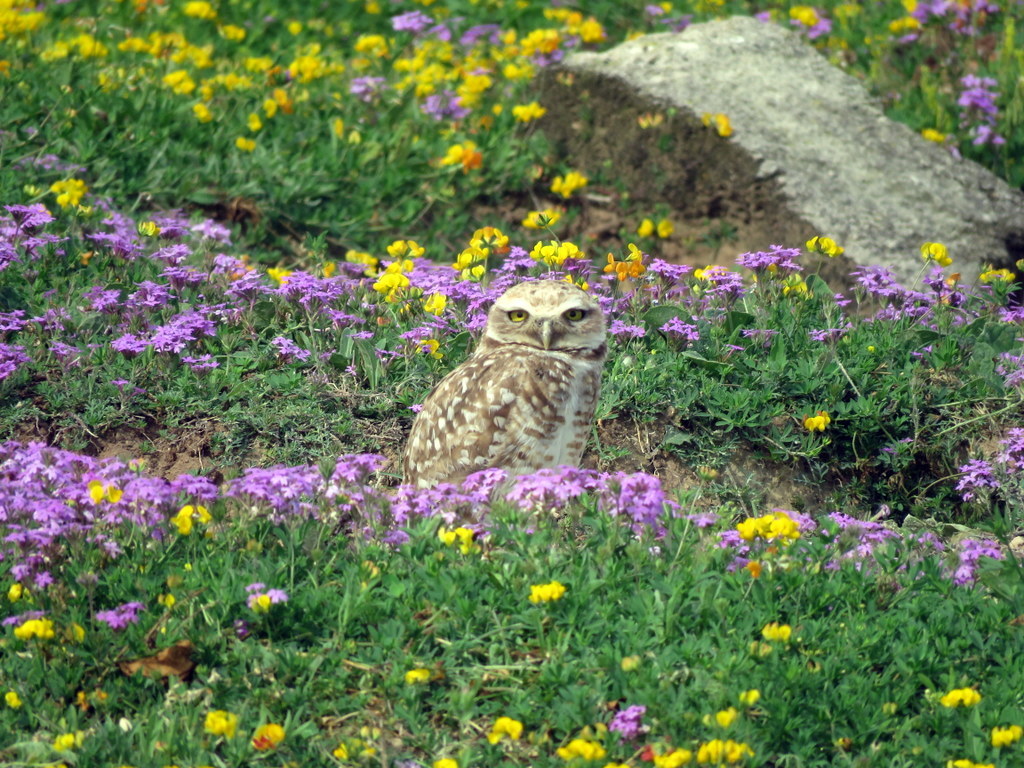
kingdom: Animalia
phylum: Chordata
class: Aves
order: Strigiformes
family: Strigidae
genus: Athene
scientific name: Athene cunicularia
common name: Burrowing owl
